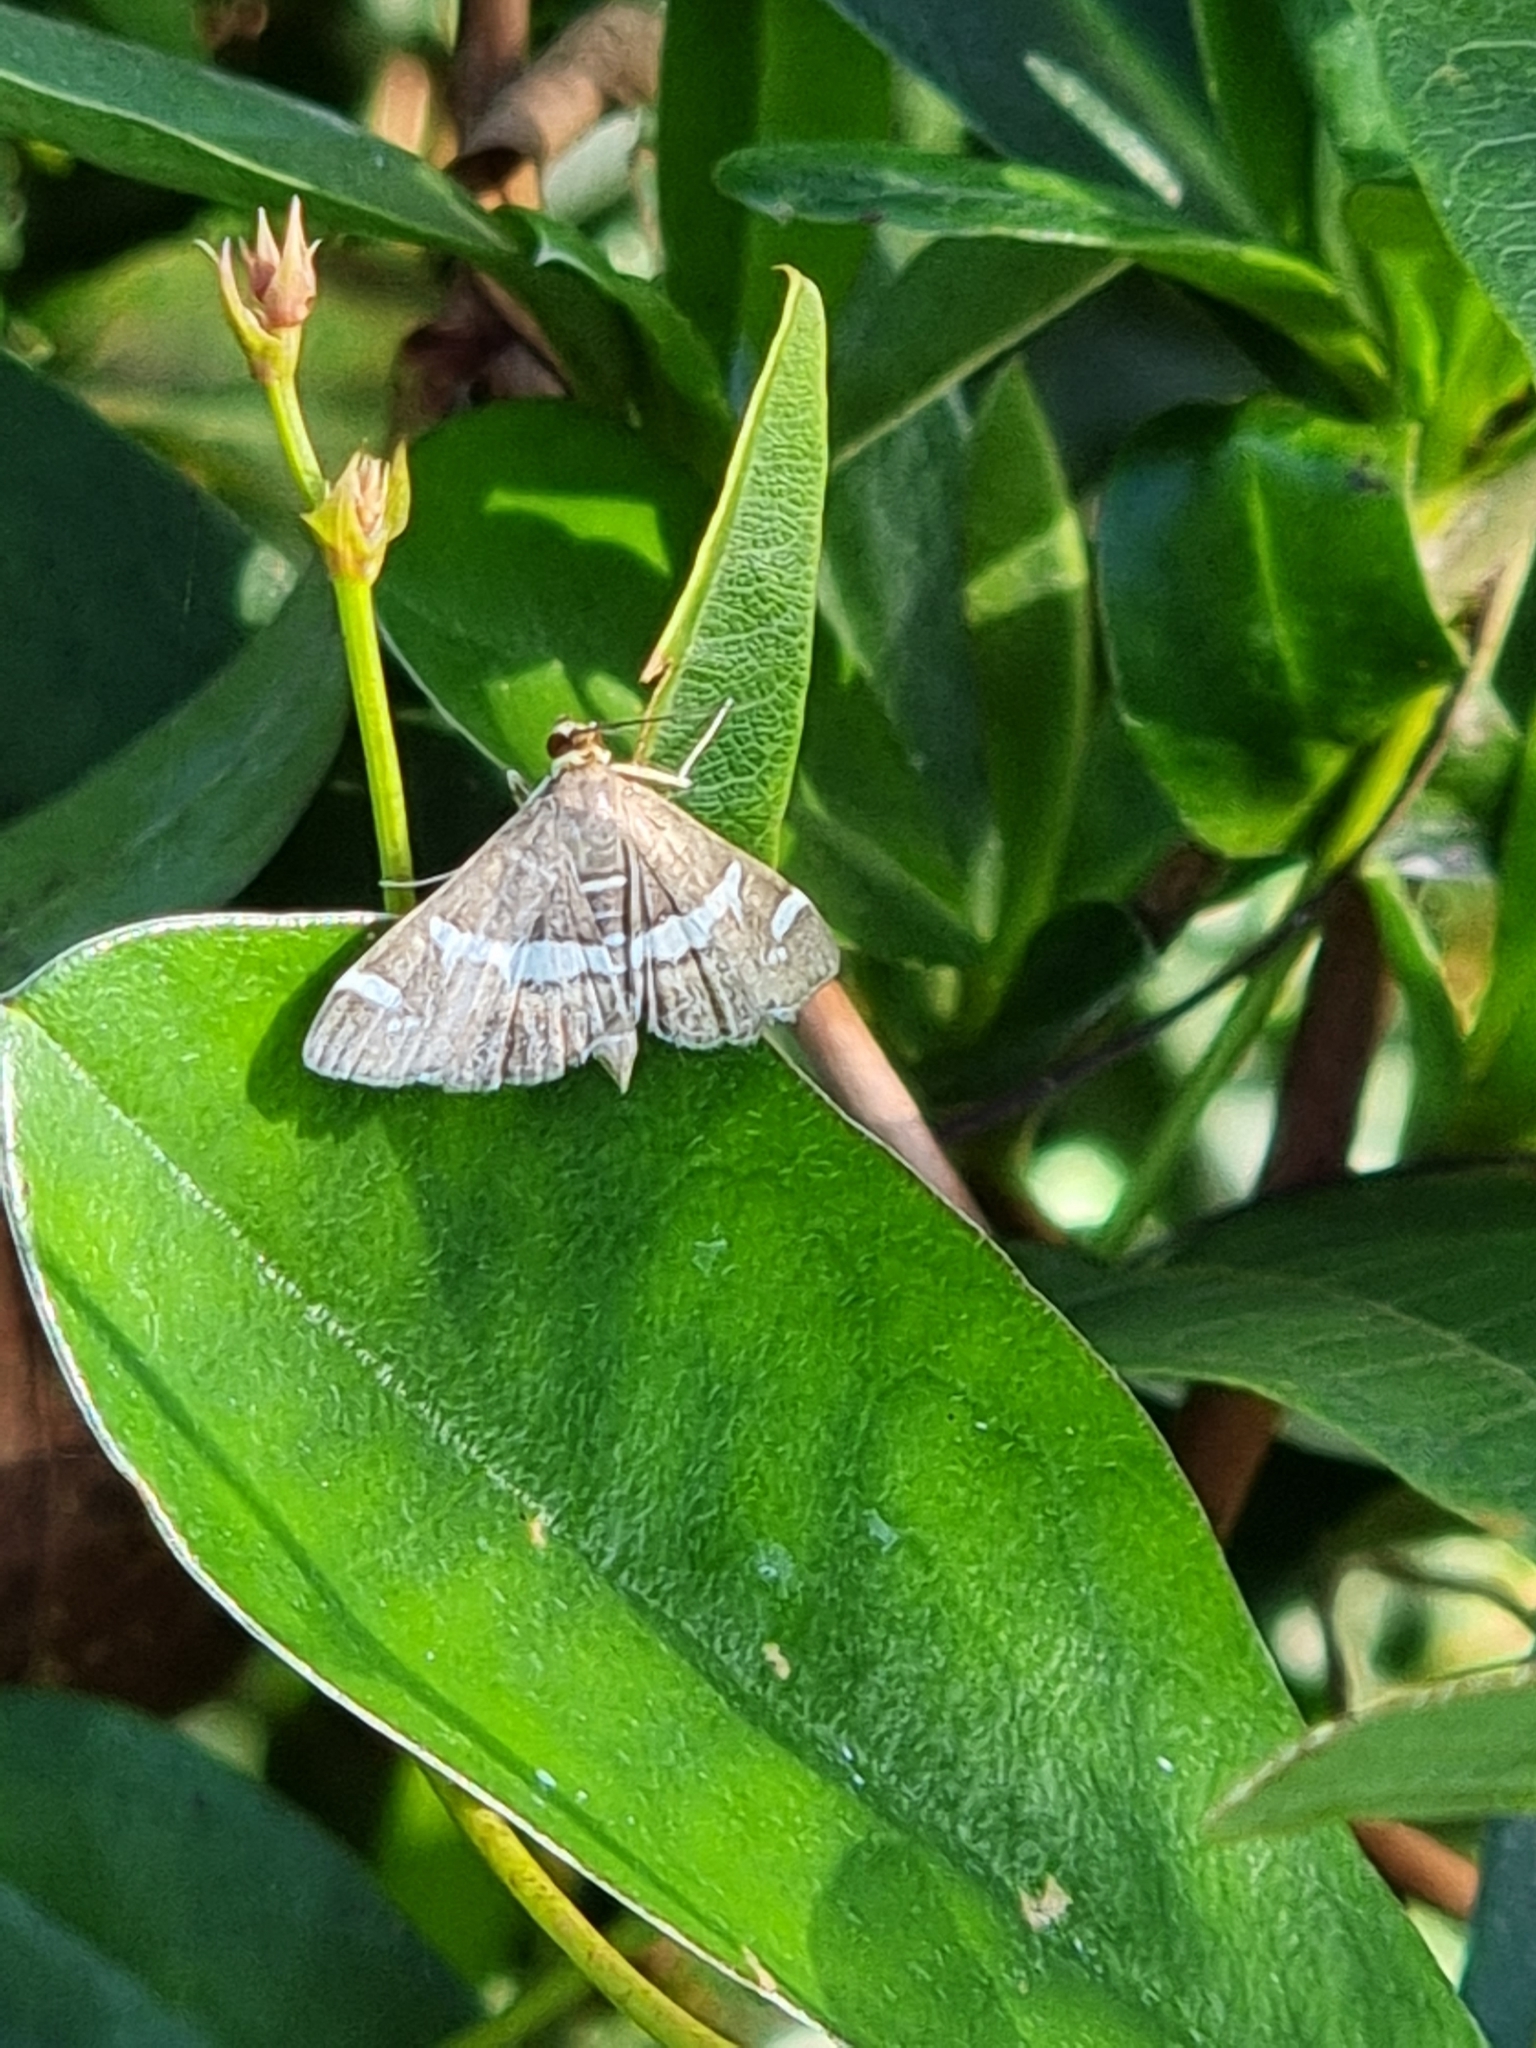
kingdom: Animalia
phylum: Arthropoda
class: Insecta
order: Lepidoptera
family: Crambidae
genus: Spoladea
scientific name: Spoladea recurvalis
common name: Beet webworm moth
